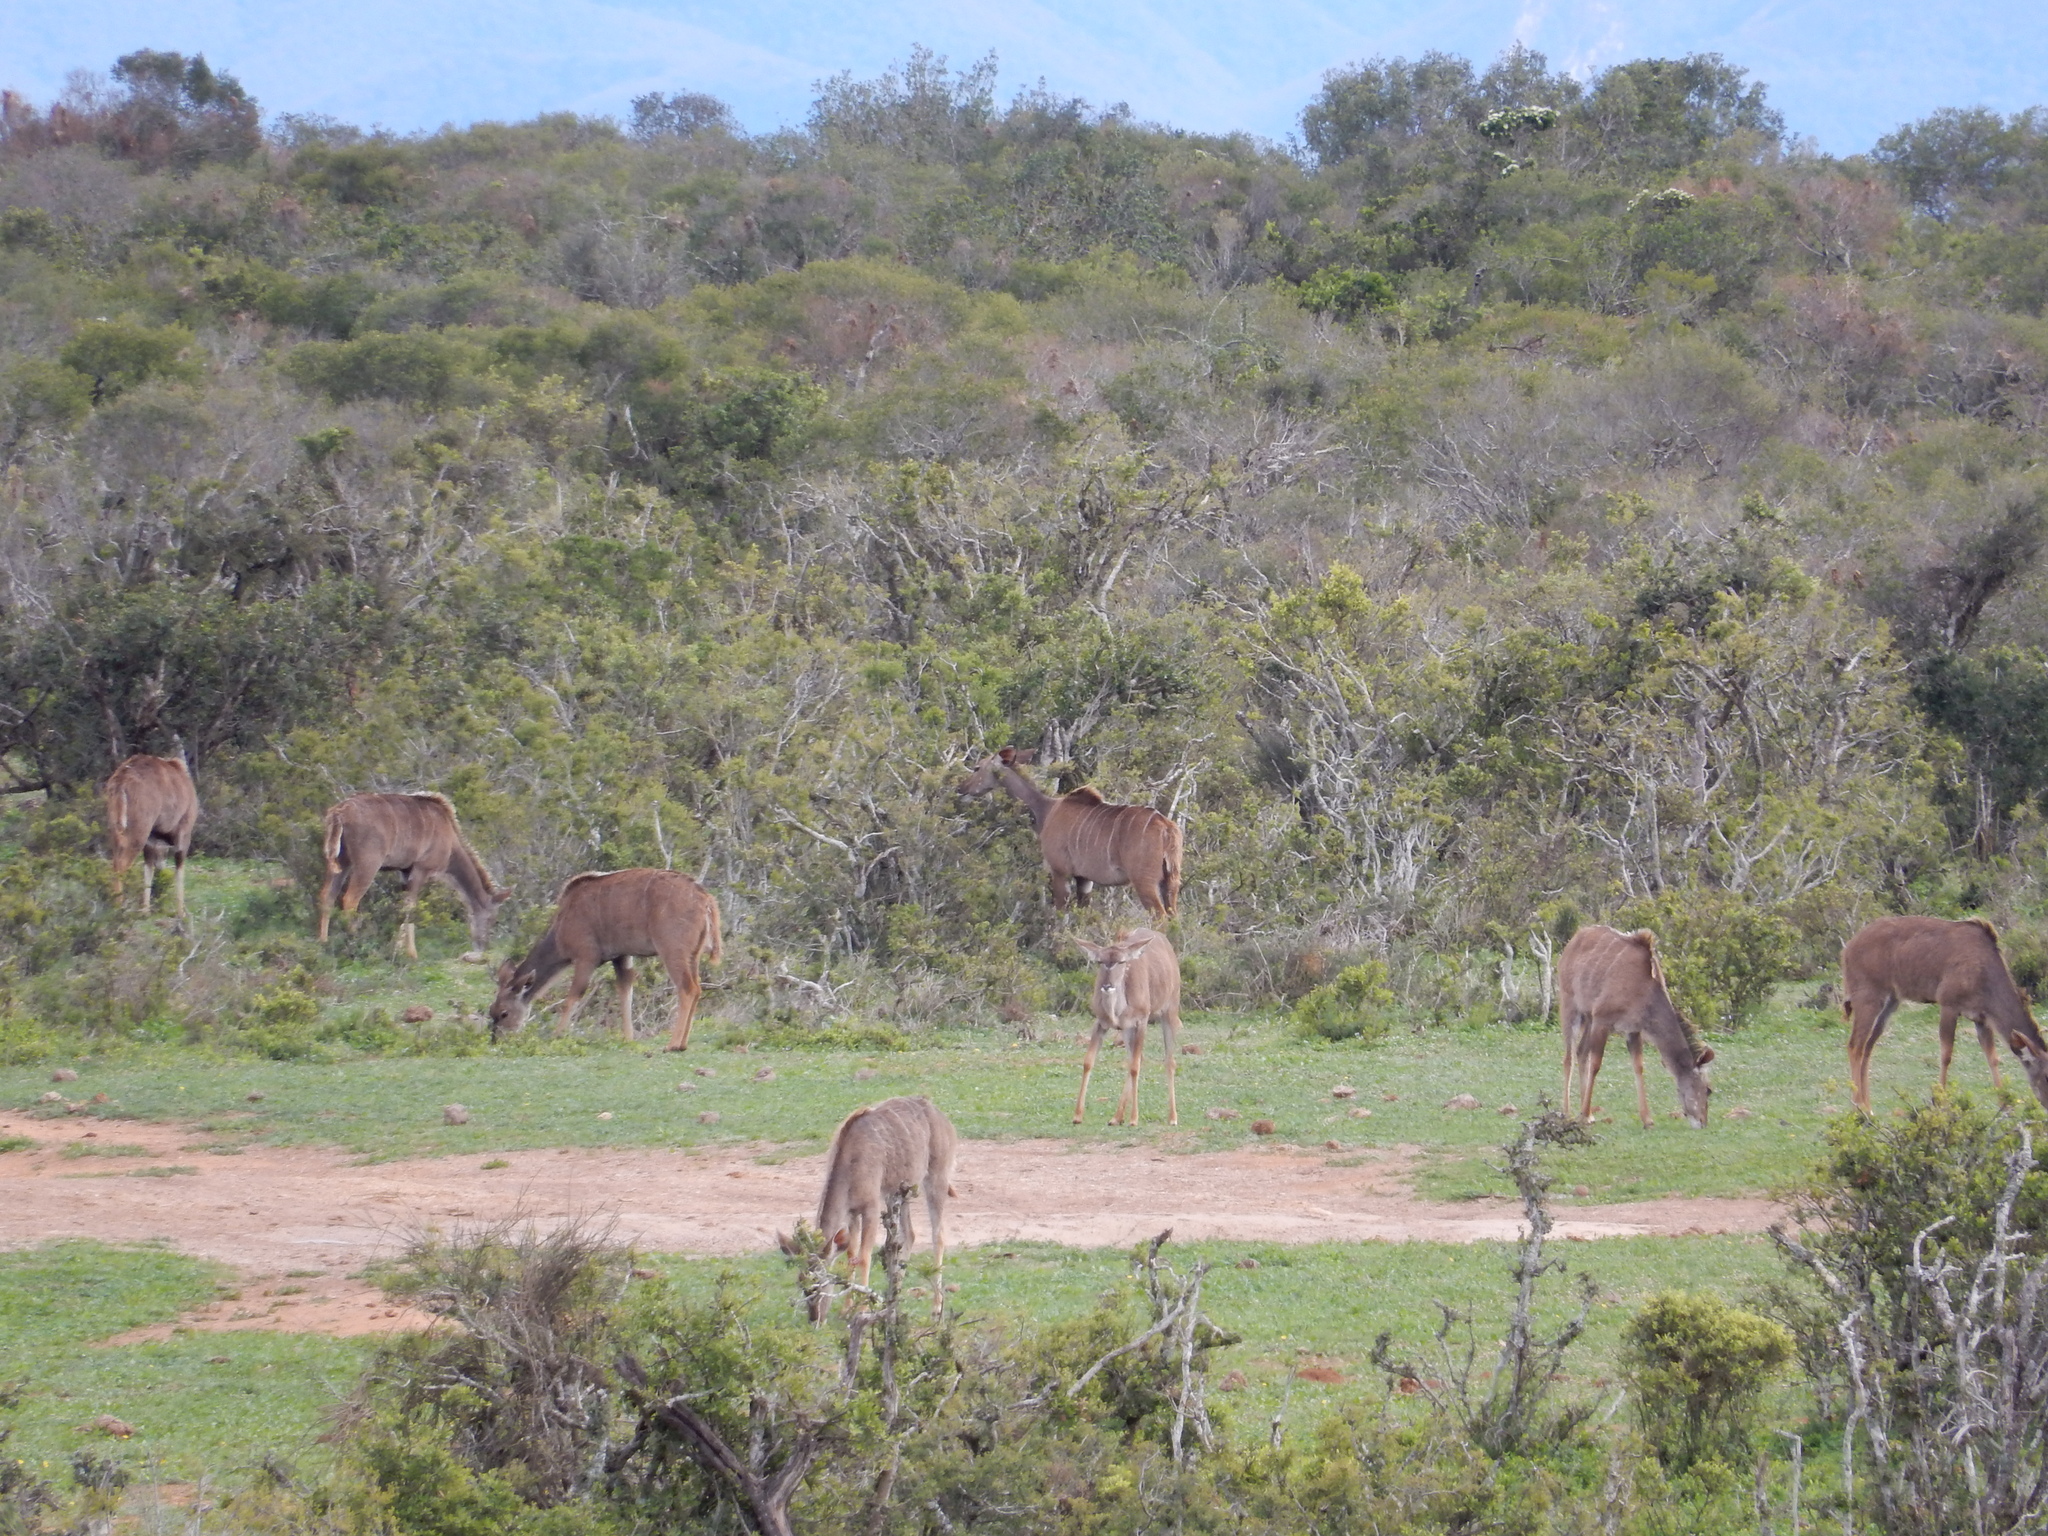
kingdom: Animalia
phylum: Chordata
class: Mammalia
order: Artiodactyla
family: Bovidae
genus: Tragelaphus
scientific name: Tragelaphus strepsiceros
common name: Greater kudu
